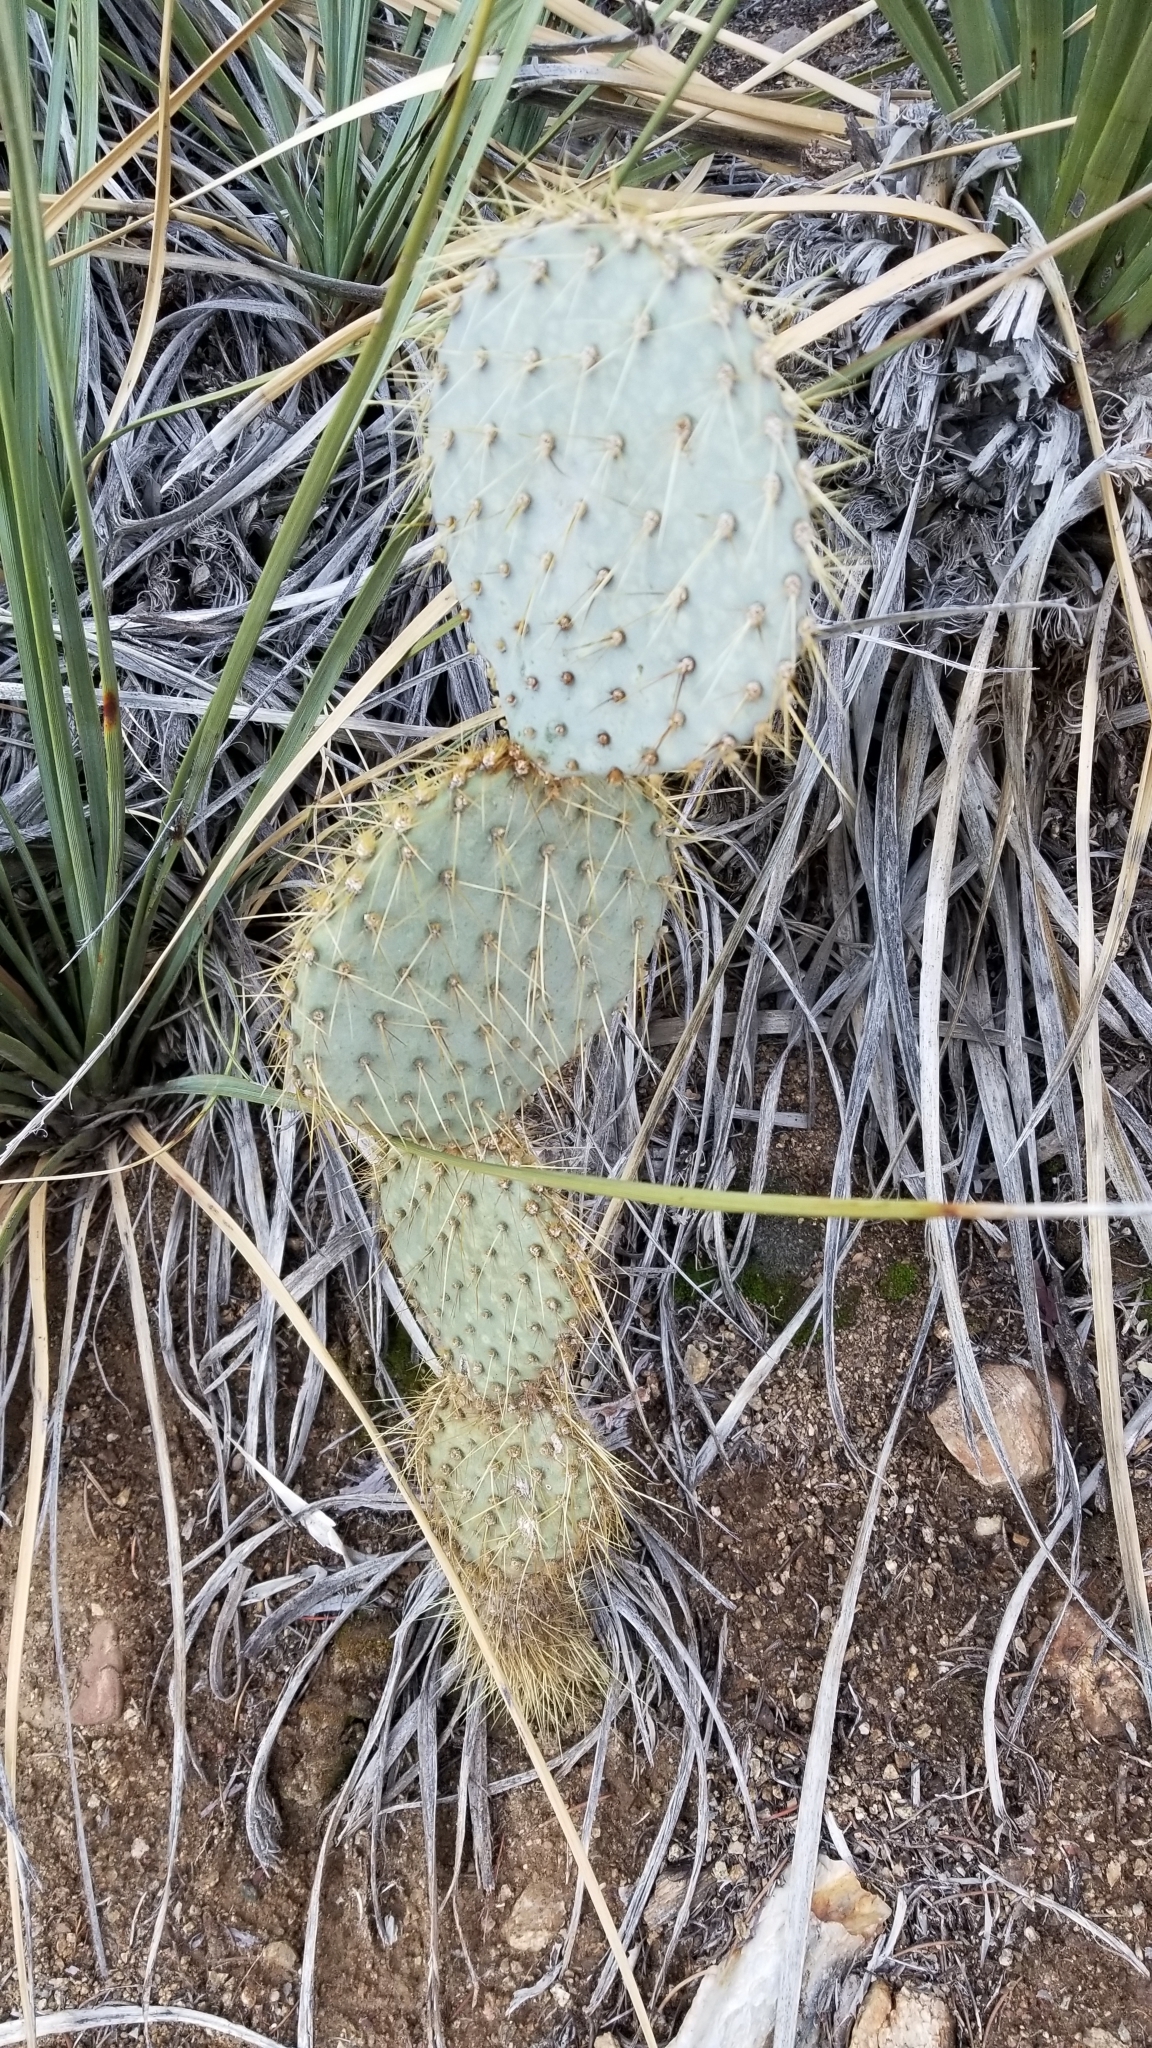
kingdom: Plantae
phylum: Tracheophyta
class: Magnoliopsida
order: Caryophyllales
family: Cactaceae
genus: Opuntia
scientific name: Opuntia chlorotica
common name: Dollar-joint prickly-pear
